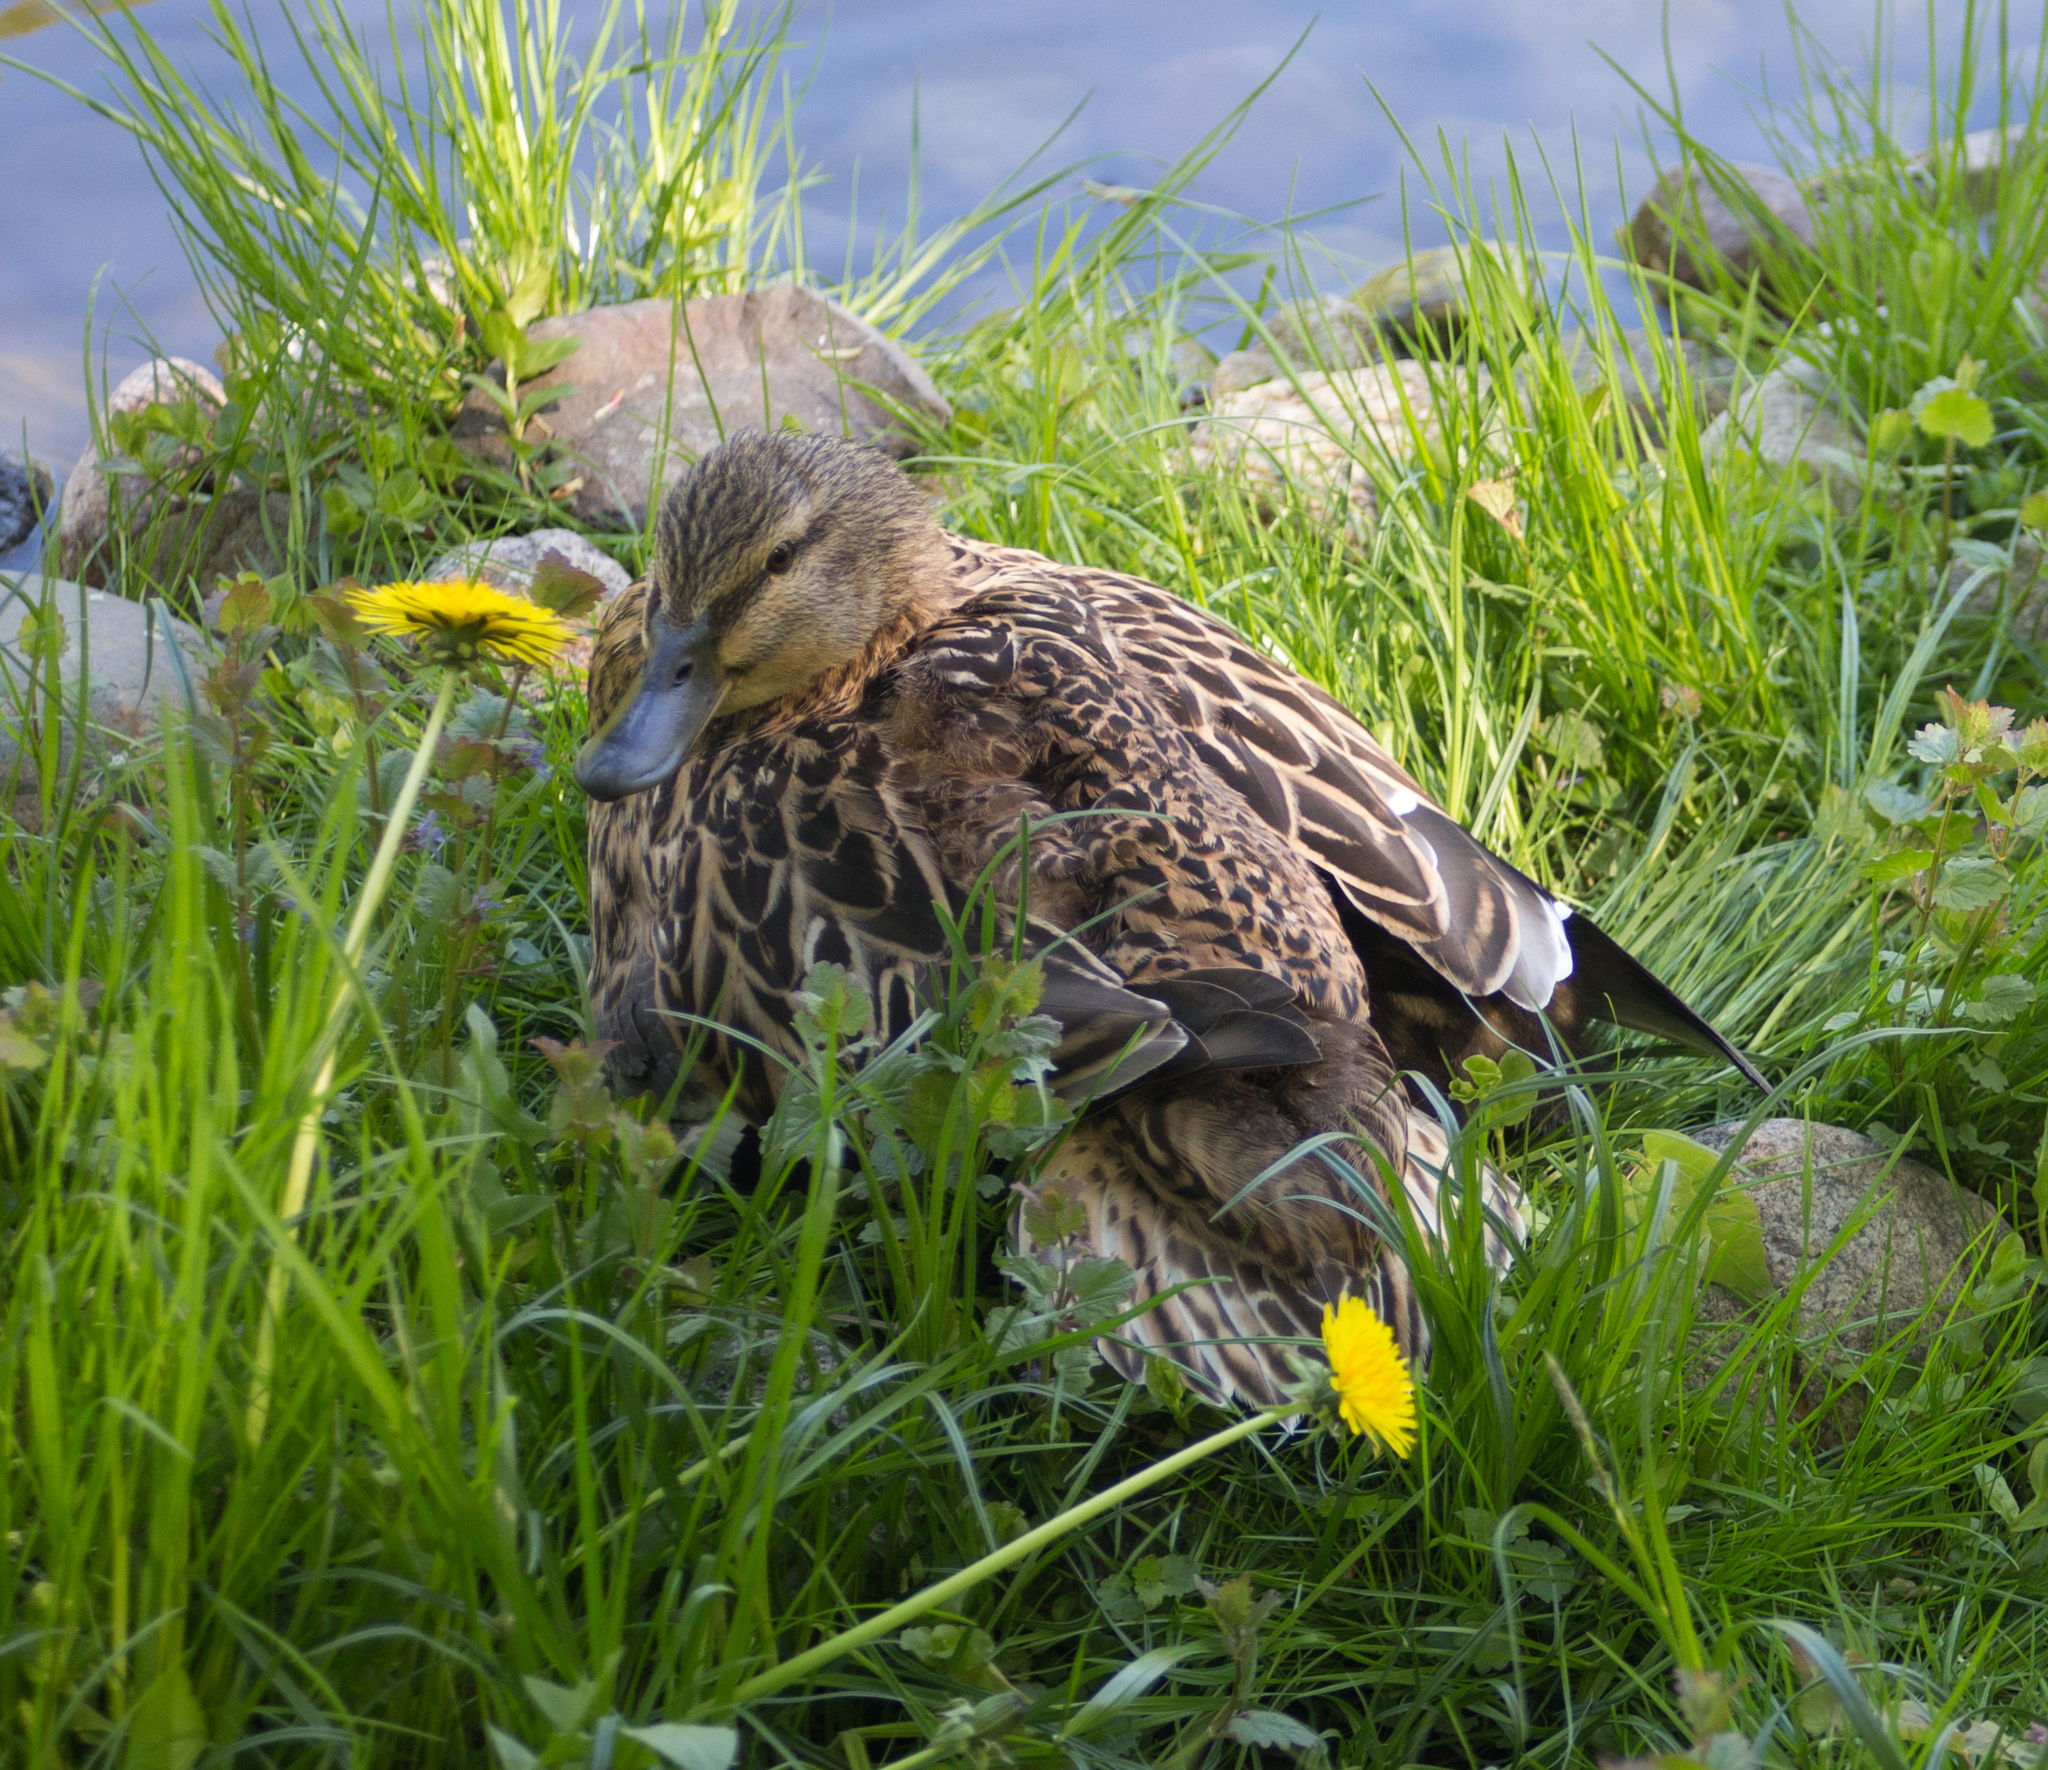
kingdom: Animalia
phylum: Chordata
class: Aves
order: Anseriformes
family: Anatidae
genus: Anas
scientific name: Anas platyrhynchos
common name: Mallard
